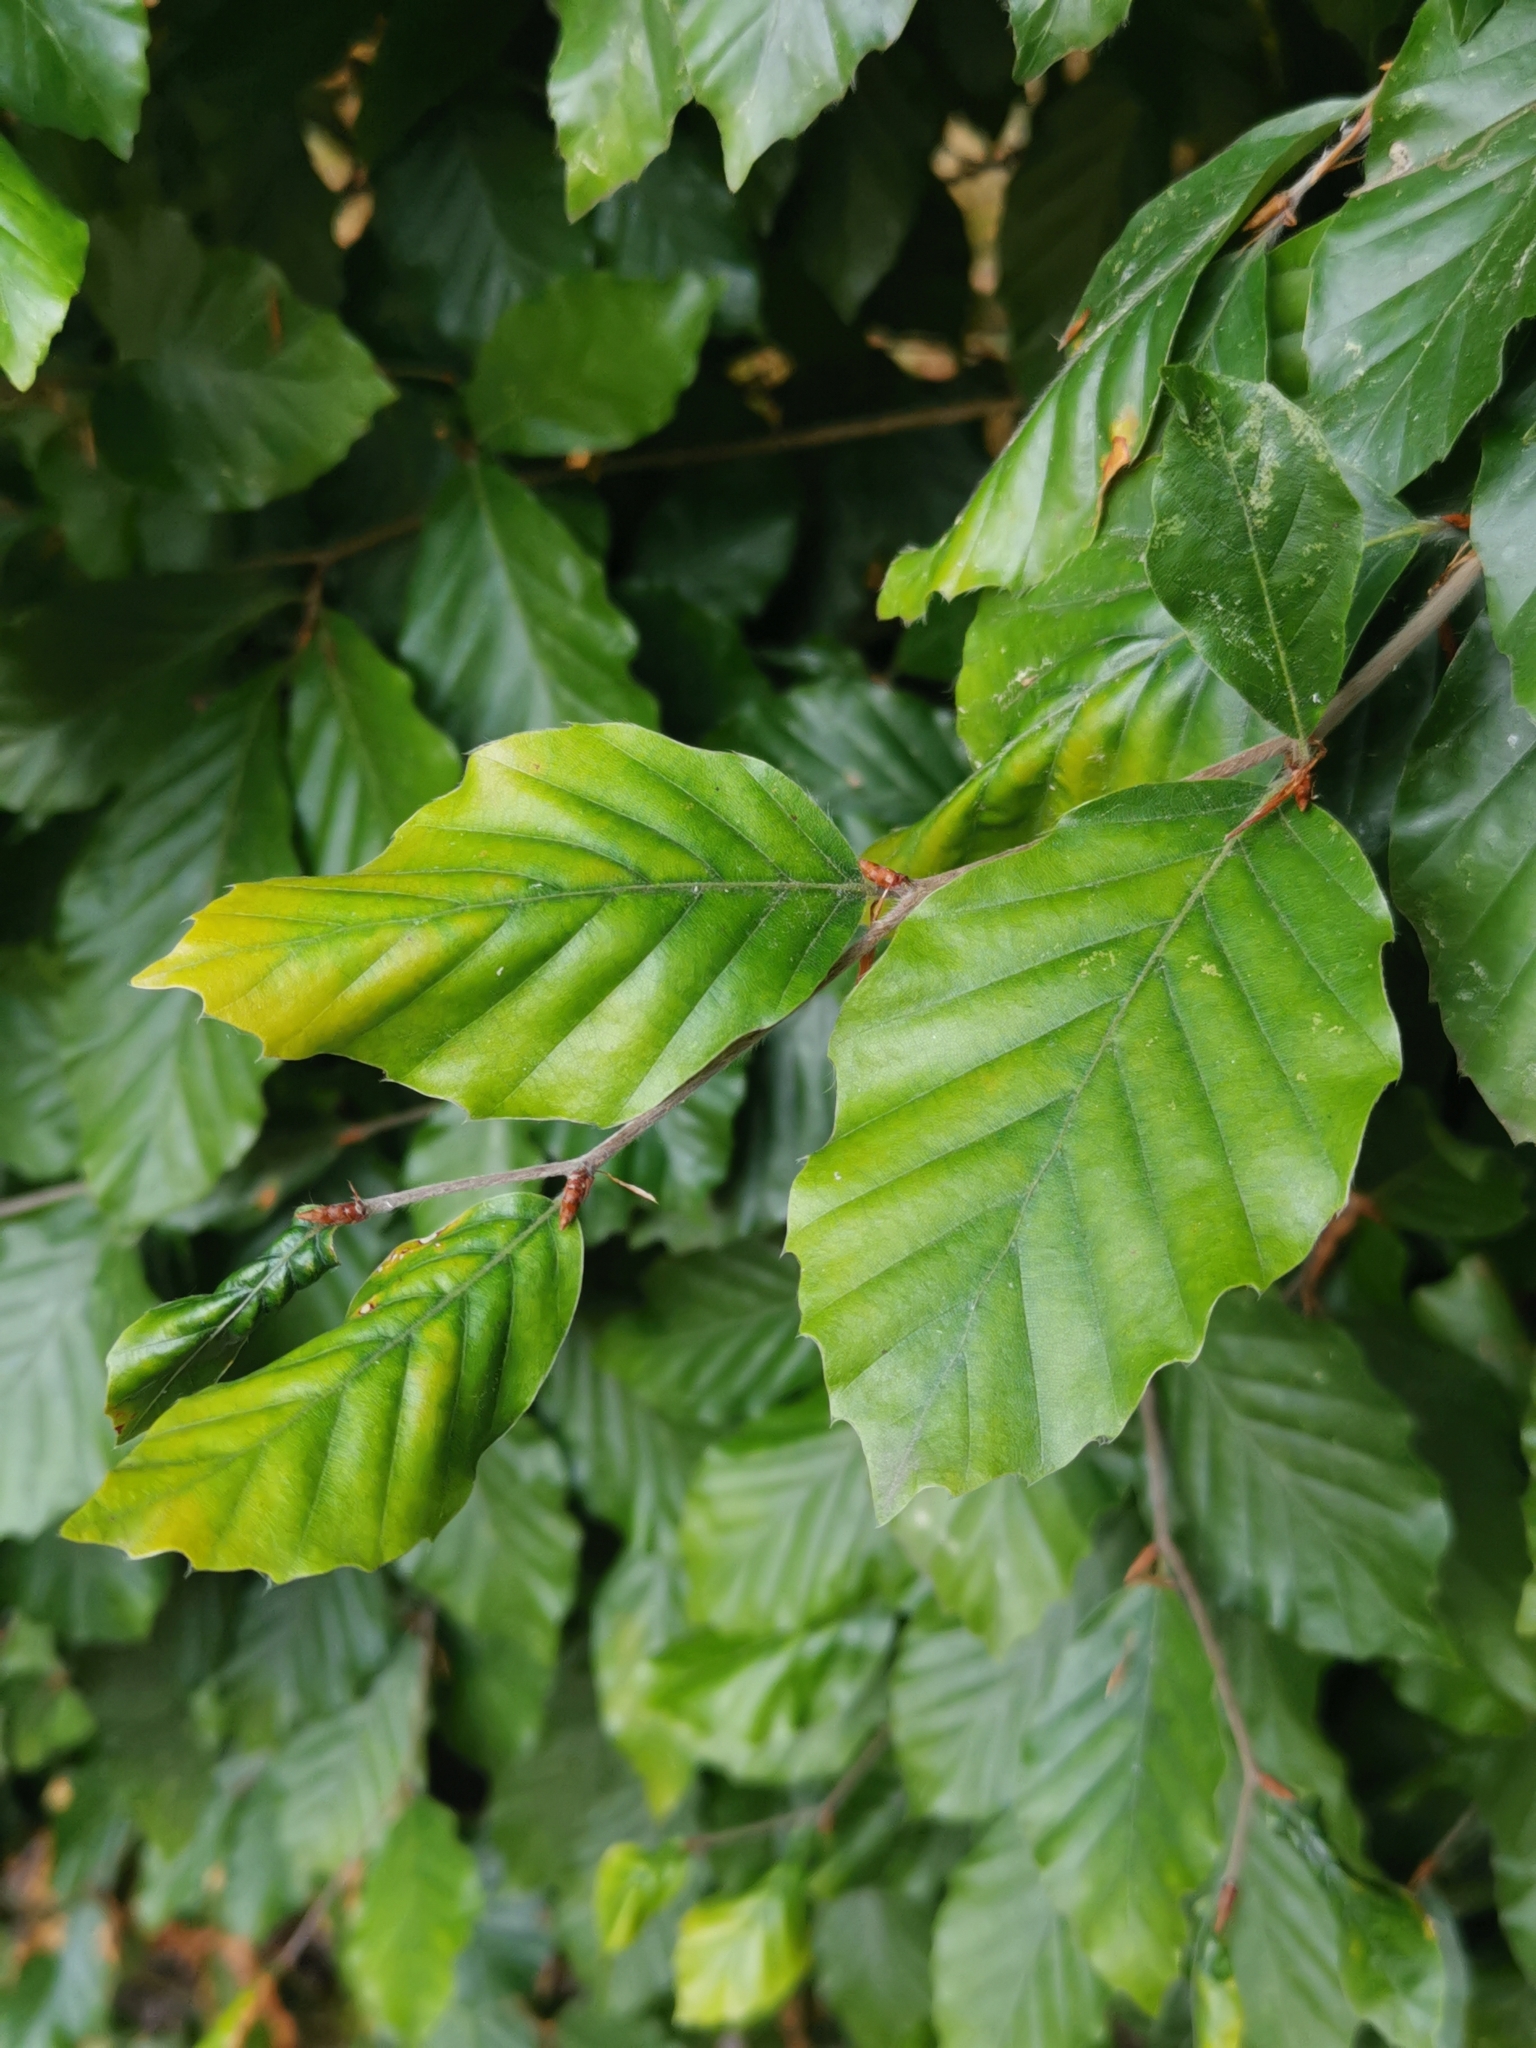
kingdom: Plantae
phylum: Tracheophyta
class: Magnoliopsida
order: Fagales
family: Fagaceae
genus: Fagus
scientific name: Fagus sylvatica
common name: Beech
